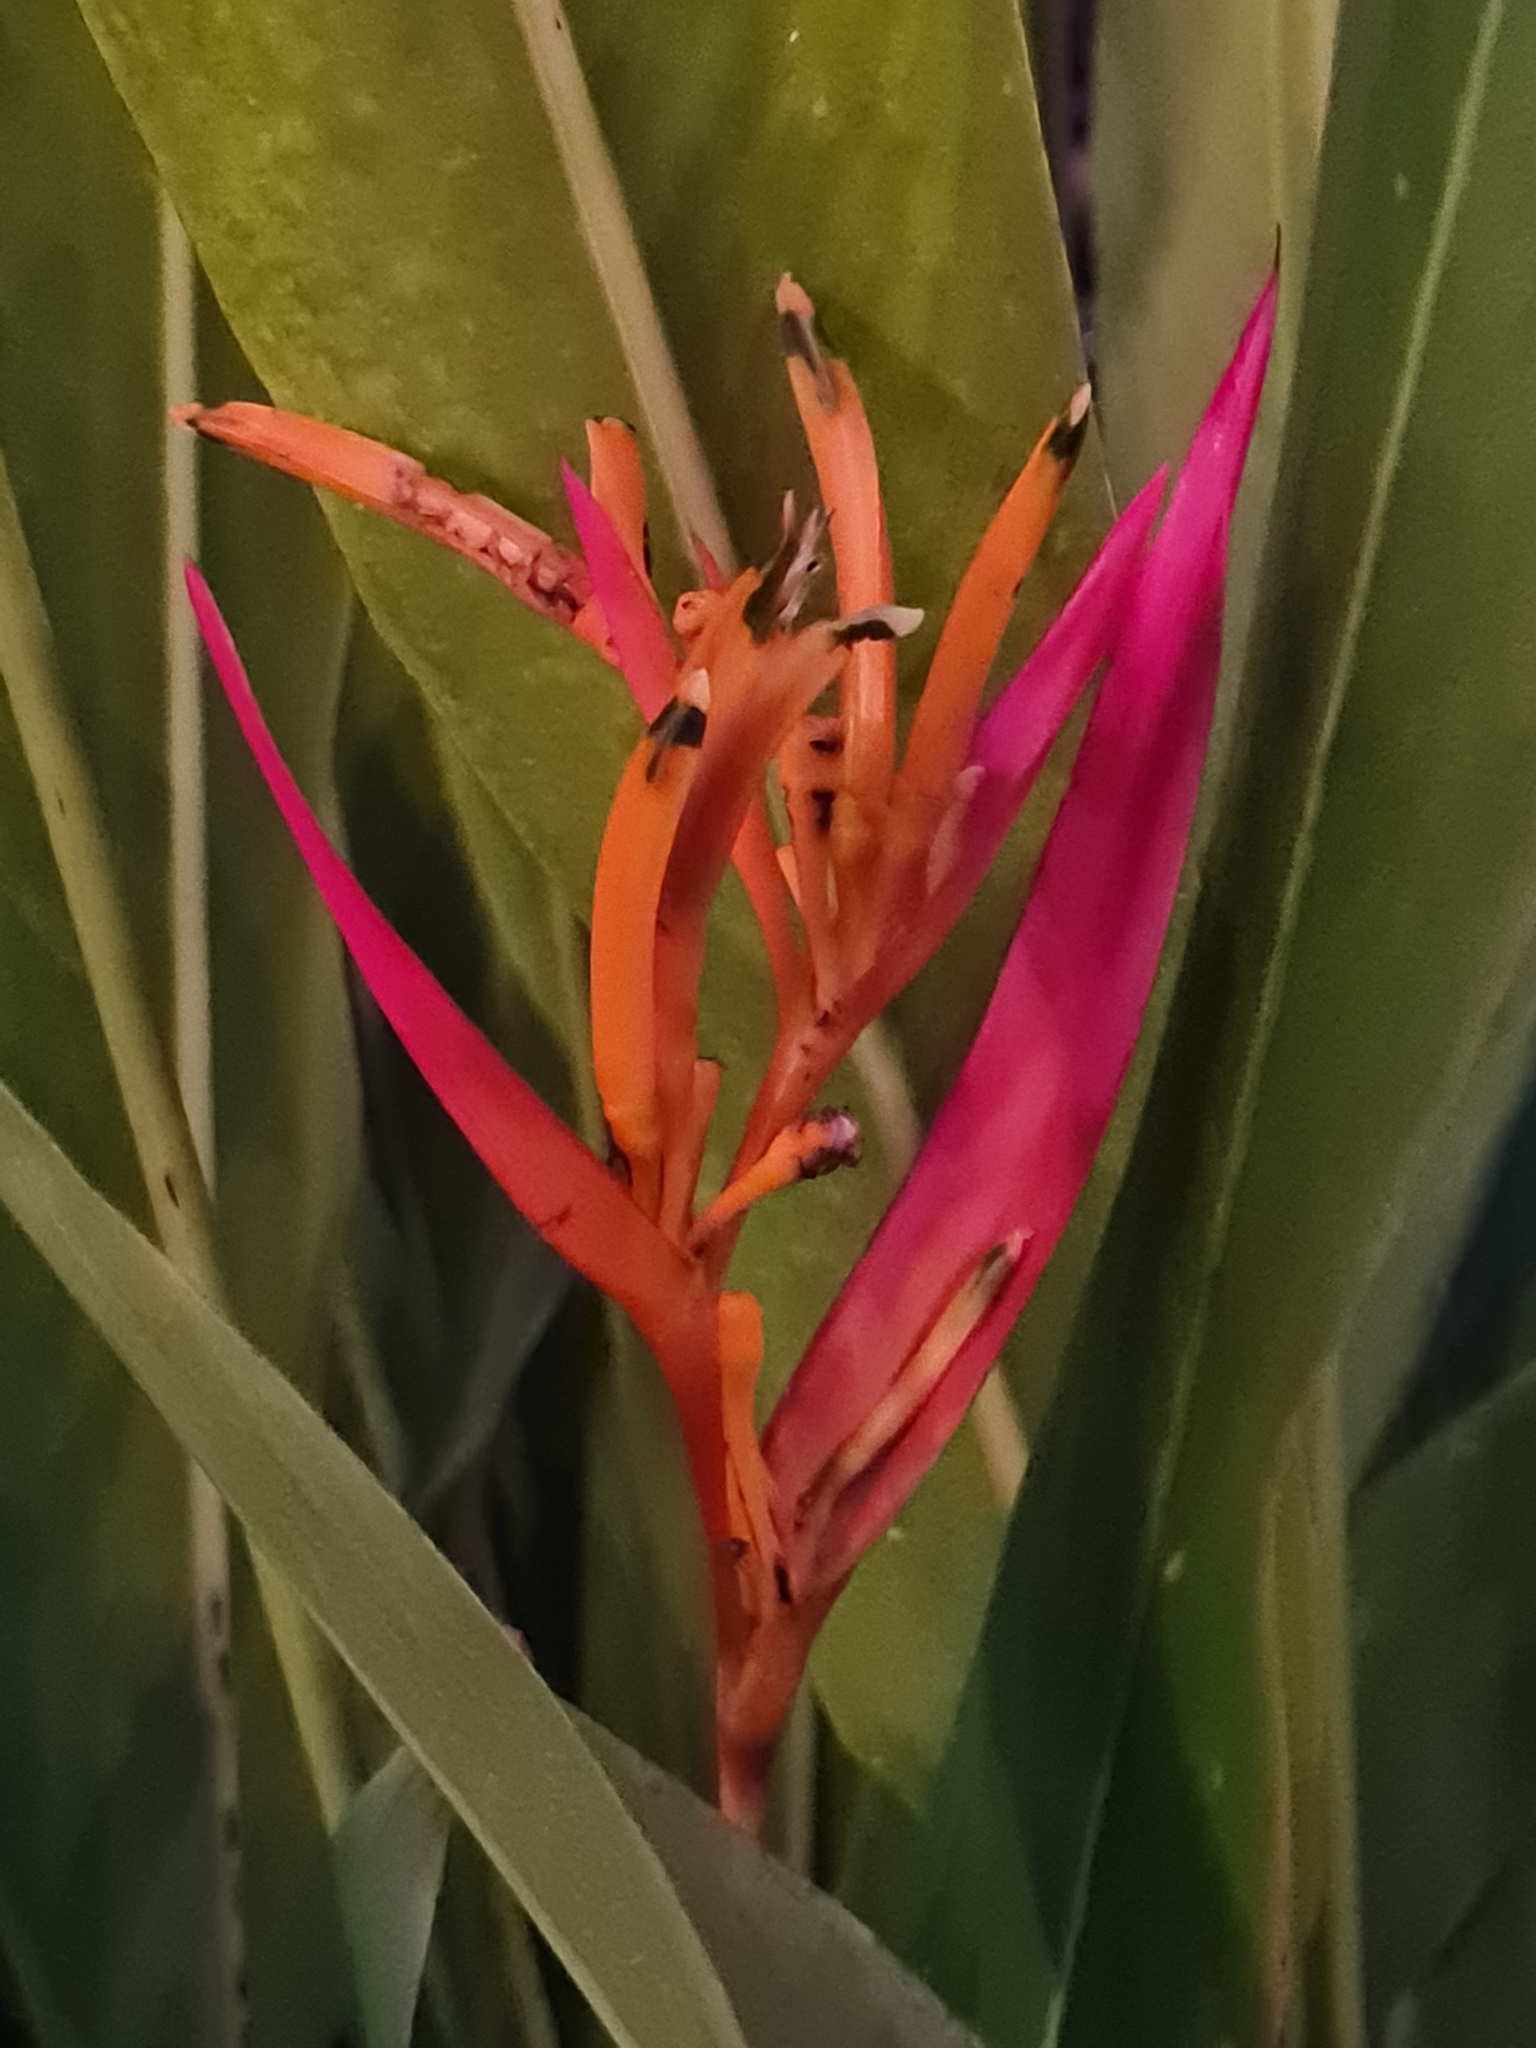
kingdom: Plantae
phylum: Tracheophyta
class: Liliopsida
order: Zingiberales
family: Heliconiaceae
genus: Heliconia
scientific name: Heliconia psittacorum
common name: Parrot's-flower
